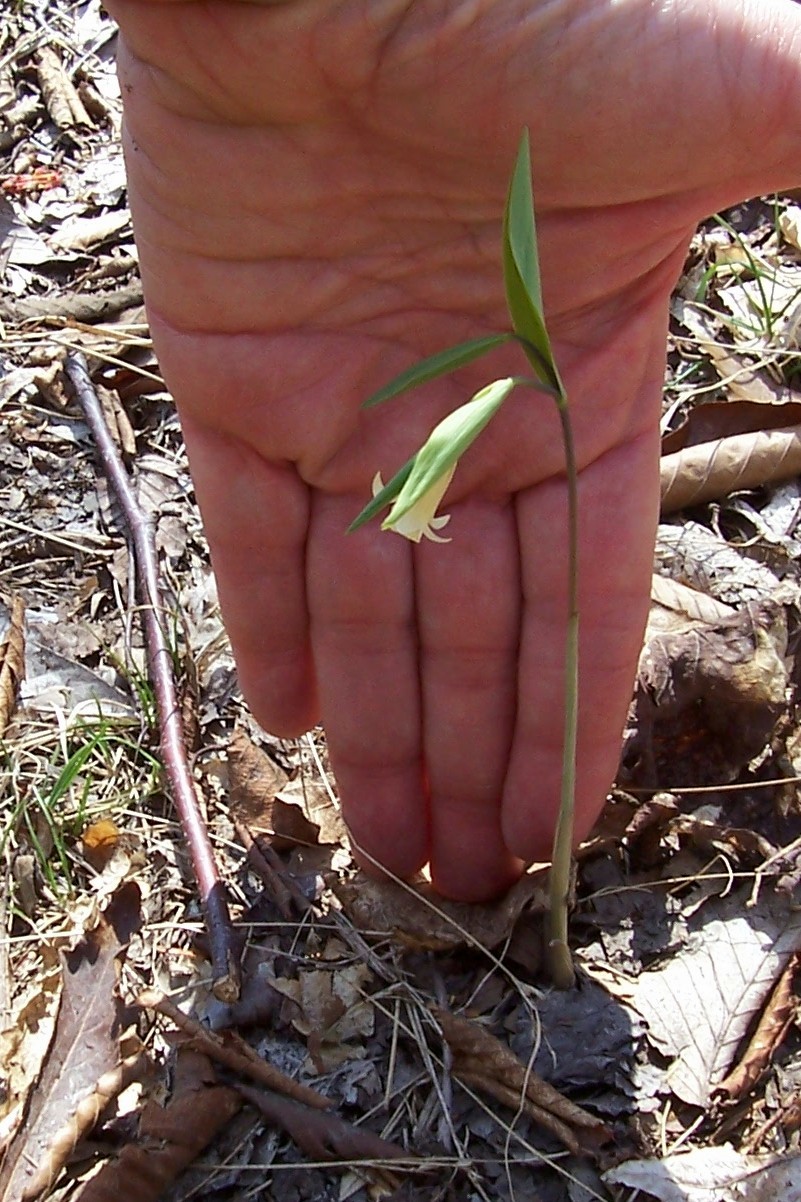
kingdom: Plantae
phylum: Tracheophyta
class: Liliopsida
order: Liliales
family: Colchicaceae
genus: Uvularia
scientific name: Uvularia sessilifolia
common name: Straw-lily
